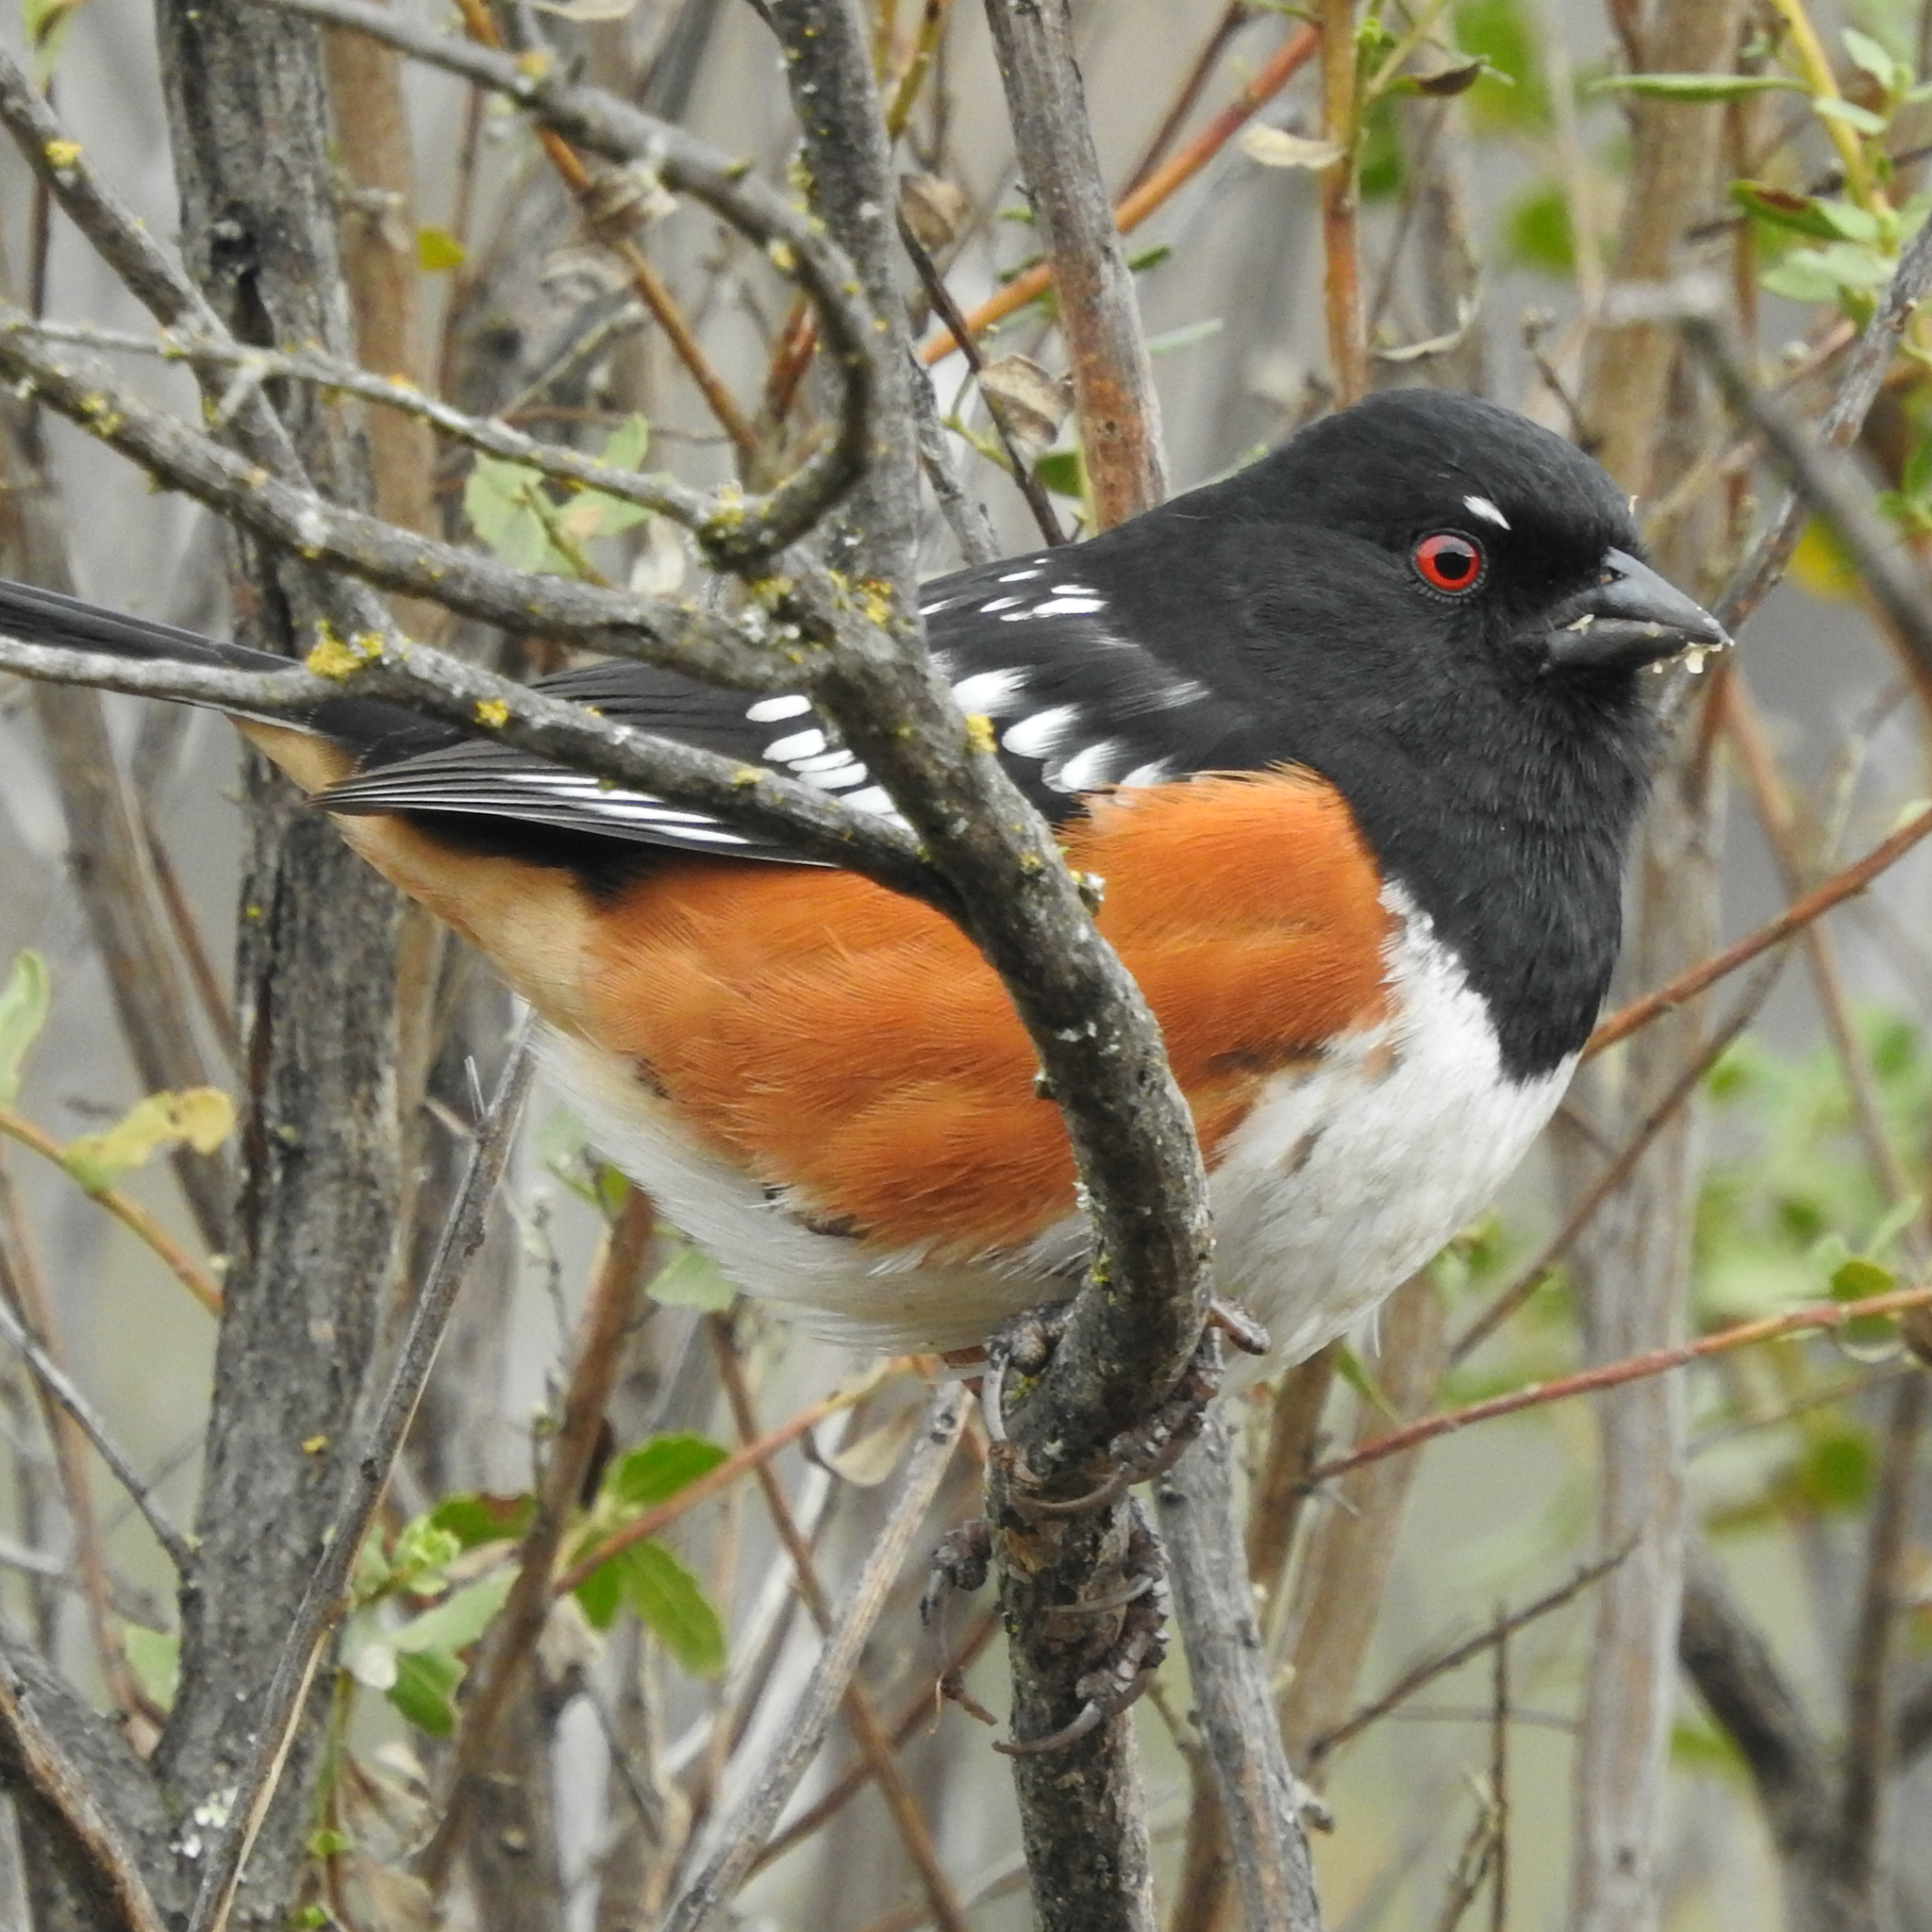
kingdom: Animalia
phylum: Chordata
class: Aves
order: Passeriformes
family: Passerellidae
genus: Pipilo
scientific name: Pipilo maculatus
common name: Spotted towhee
